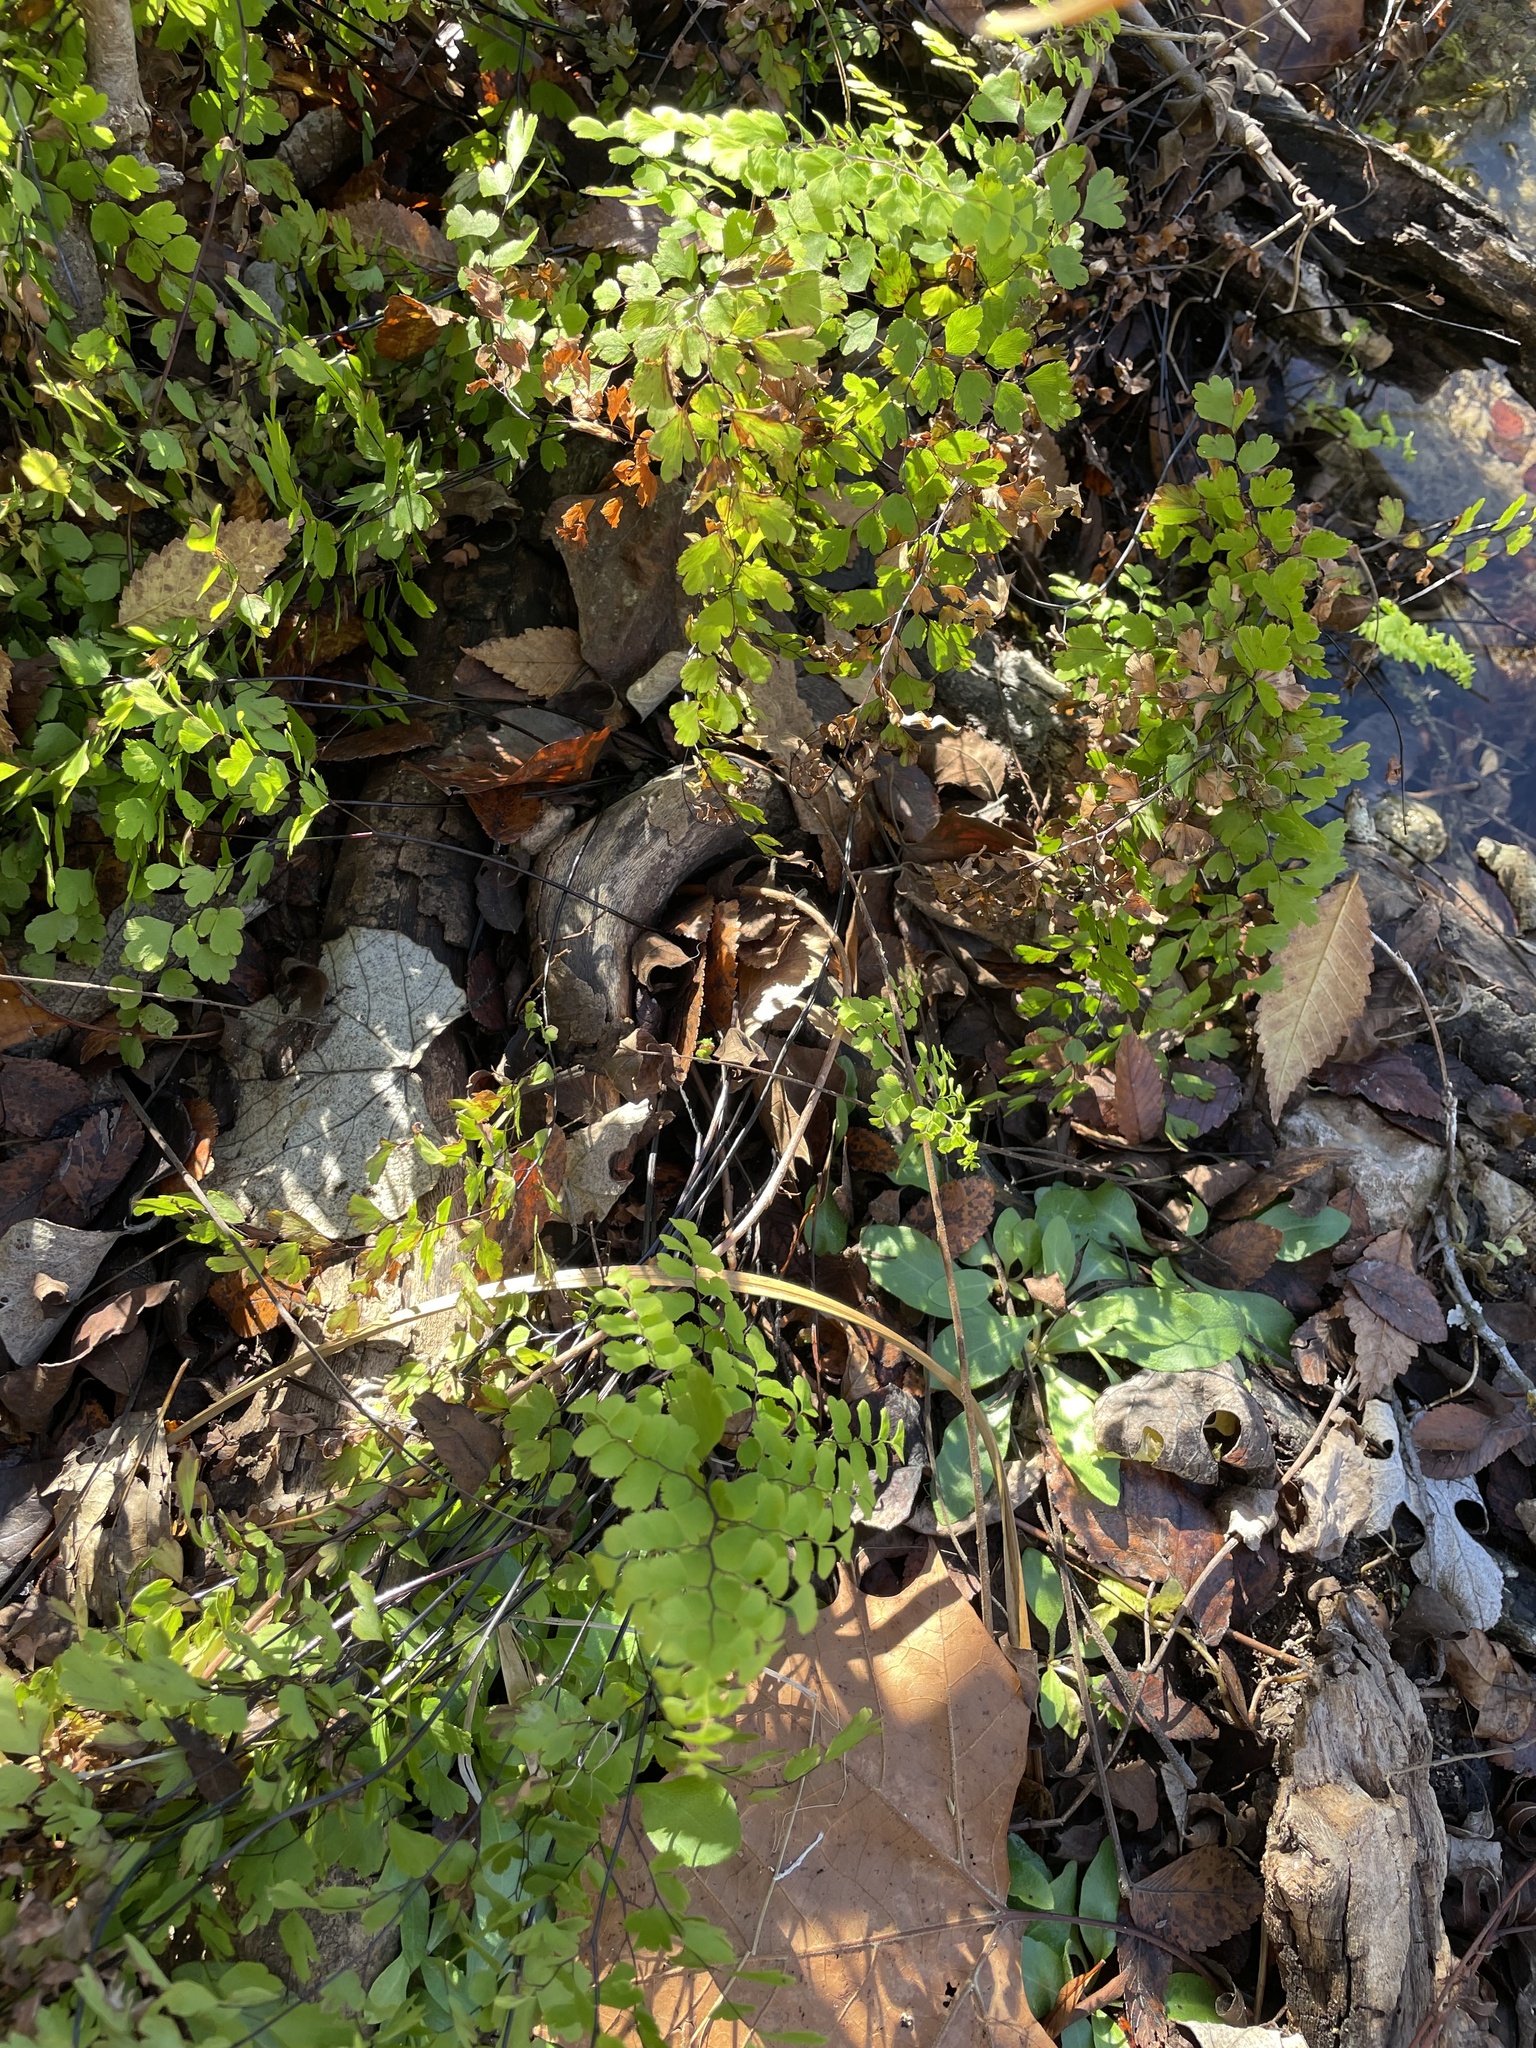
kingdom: Plantae
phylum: Tracheophyta
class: Polypodiopsida
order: Polypodiales
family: Pteridaceae
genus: Adiantum
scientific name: Adiantum capillus-veneris
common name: Maidenhair fern
